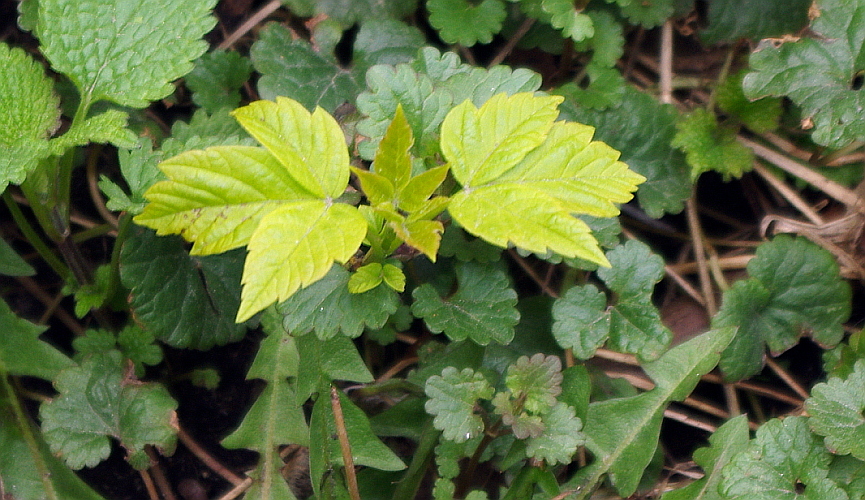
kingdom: Plantae
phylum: Tracheophyta
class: Magnoliopsida
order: Sapindales
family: Sapindaceae
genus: Acer
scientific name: Acer negundo
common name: Ashleaf maple
